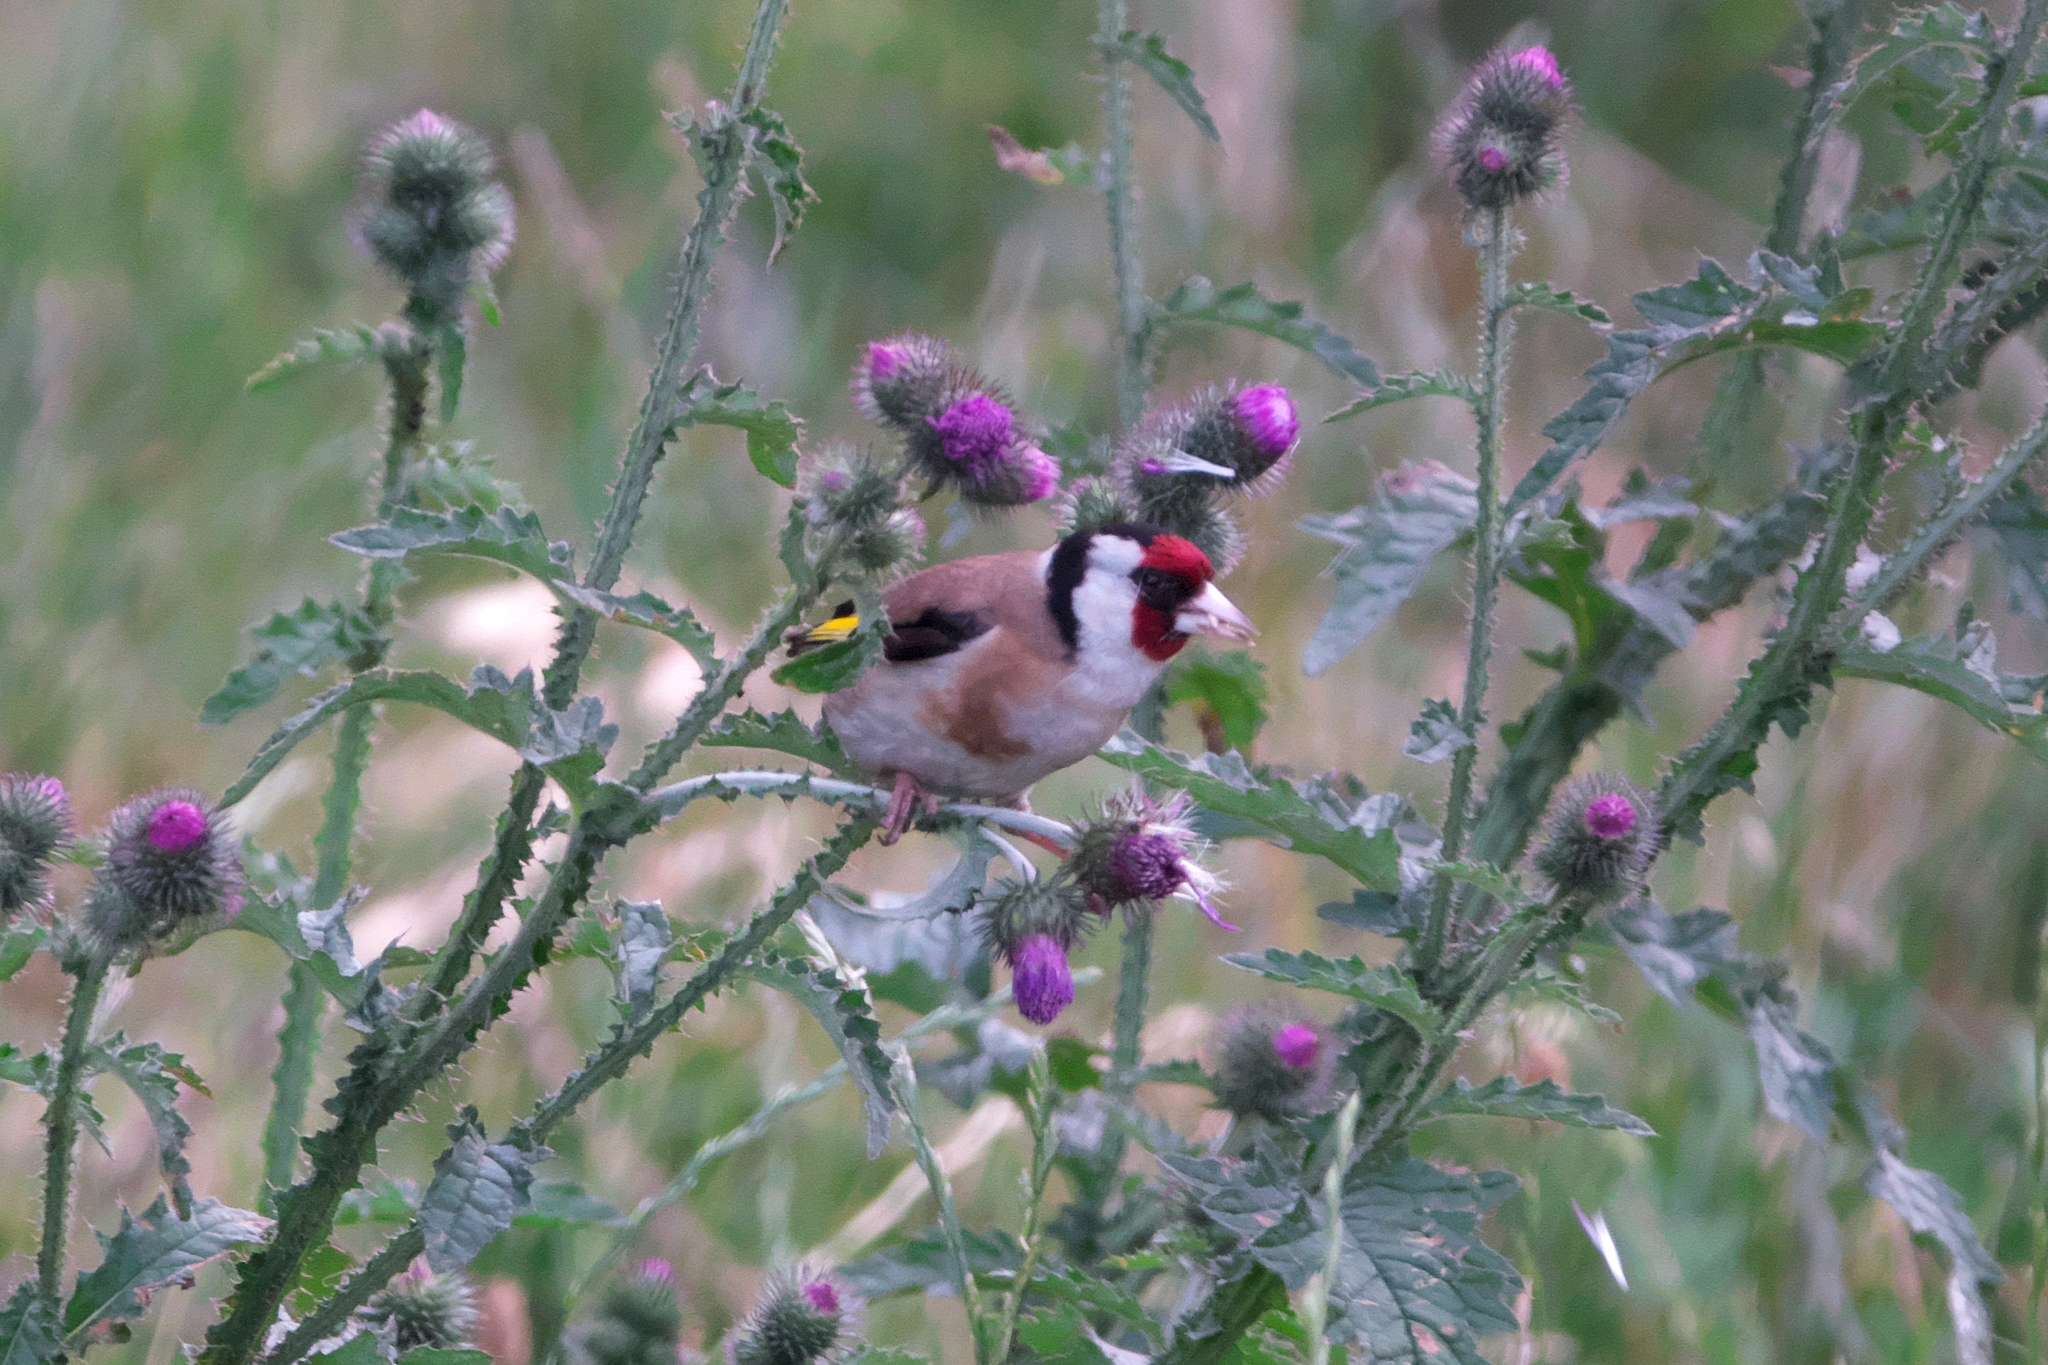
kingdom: Animalia
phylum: Chordata
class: Aves
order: Passeriformes
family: Fringillidae
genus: Carduelis
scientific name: Carduelis carduelis
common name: European goldfinch
